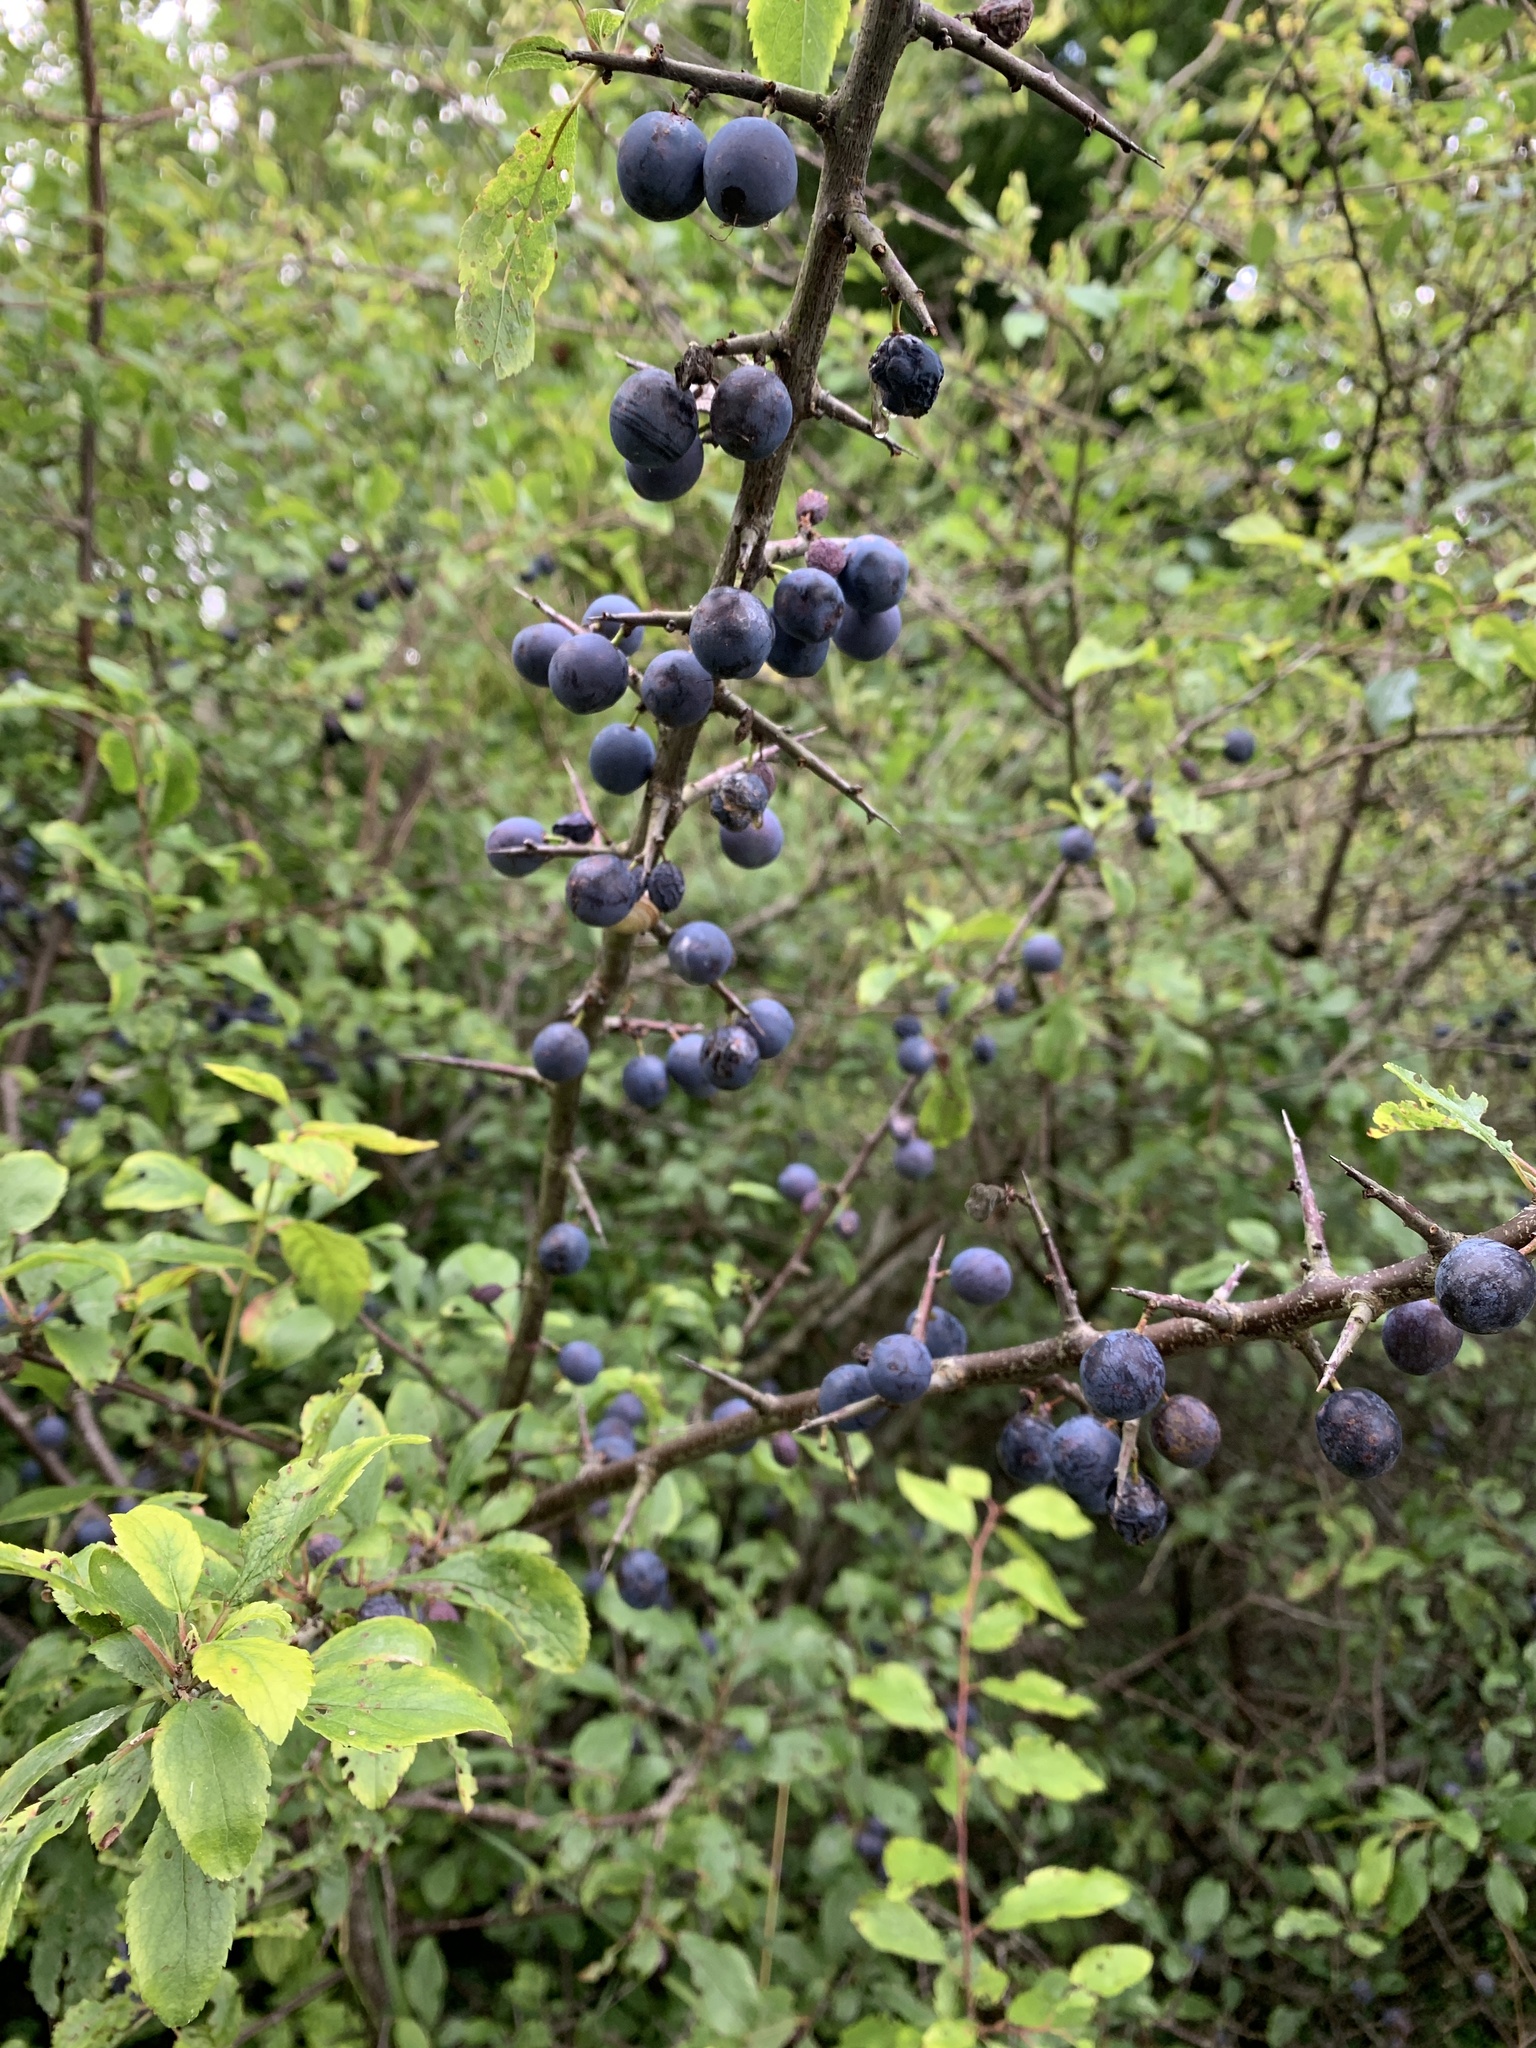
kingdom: Plantae
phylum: Tracheophyta
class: Magnoliopsida
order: Rosales
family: Rosaceae
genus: Prunus
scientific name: Prunus spinosa
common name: Blackthorn
